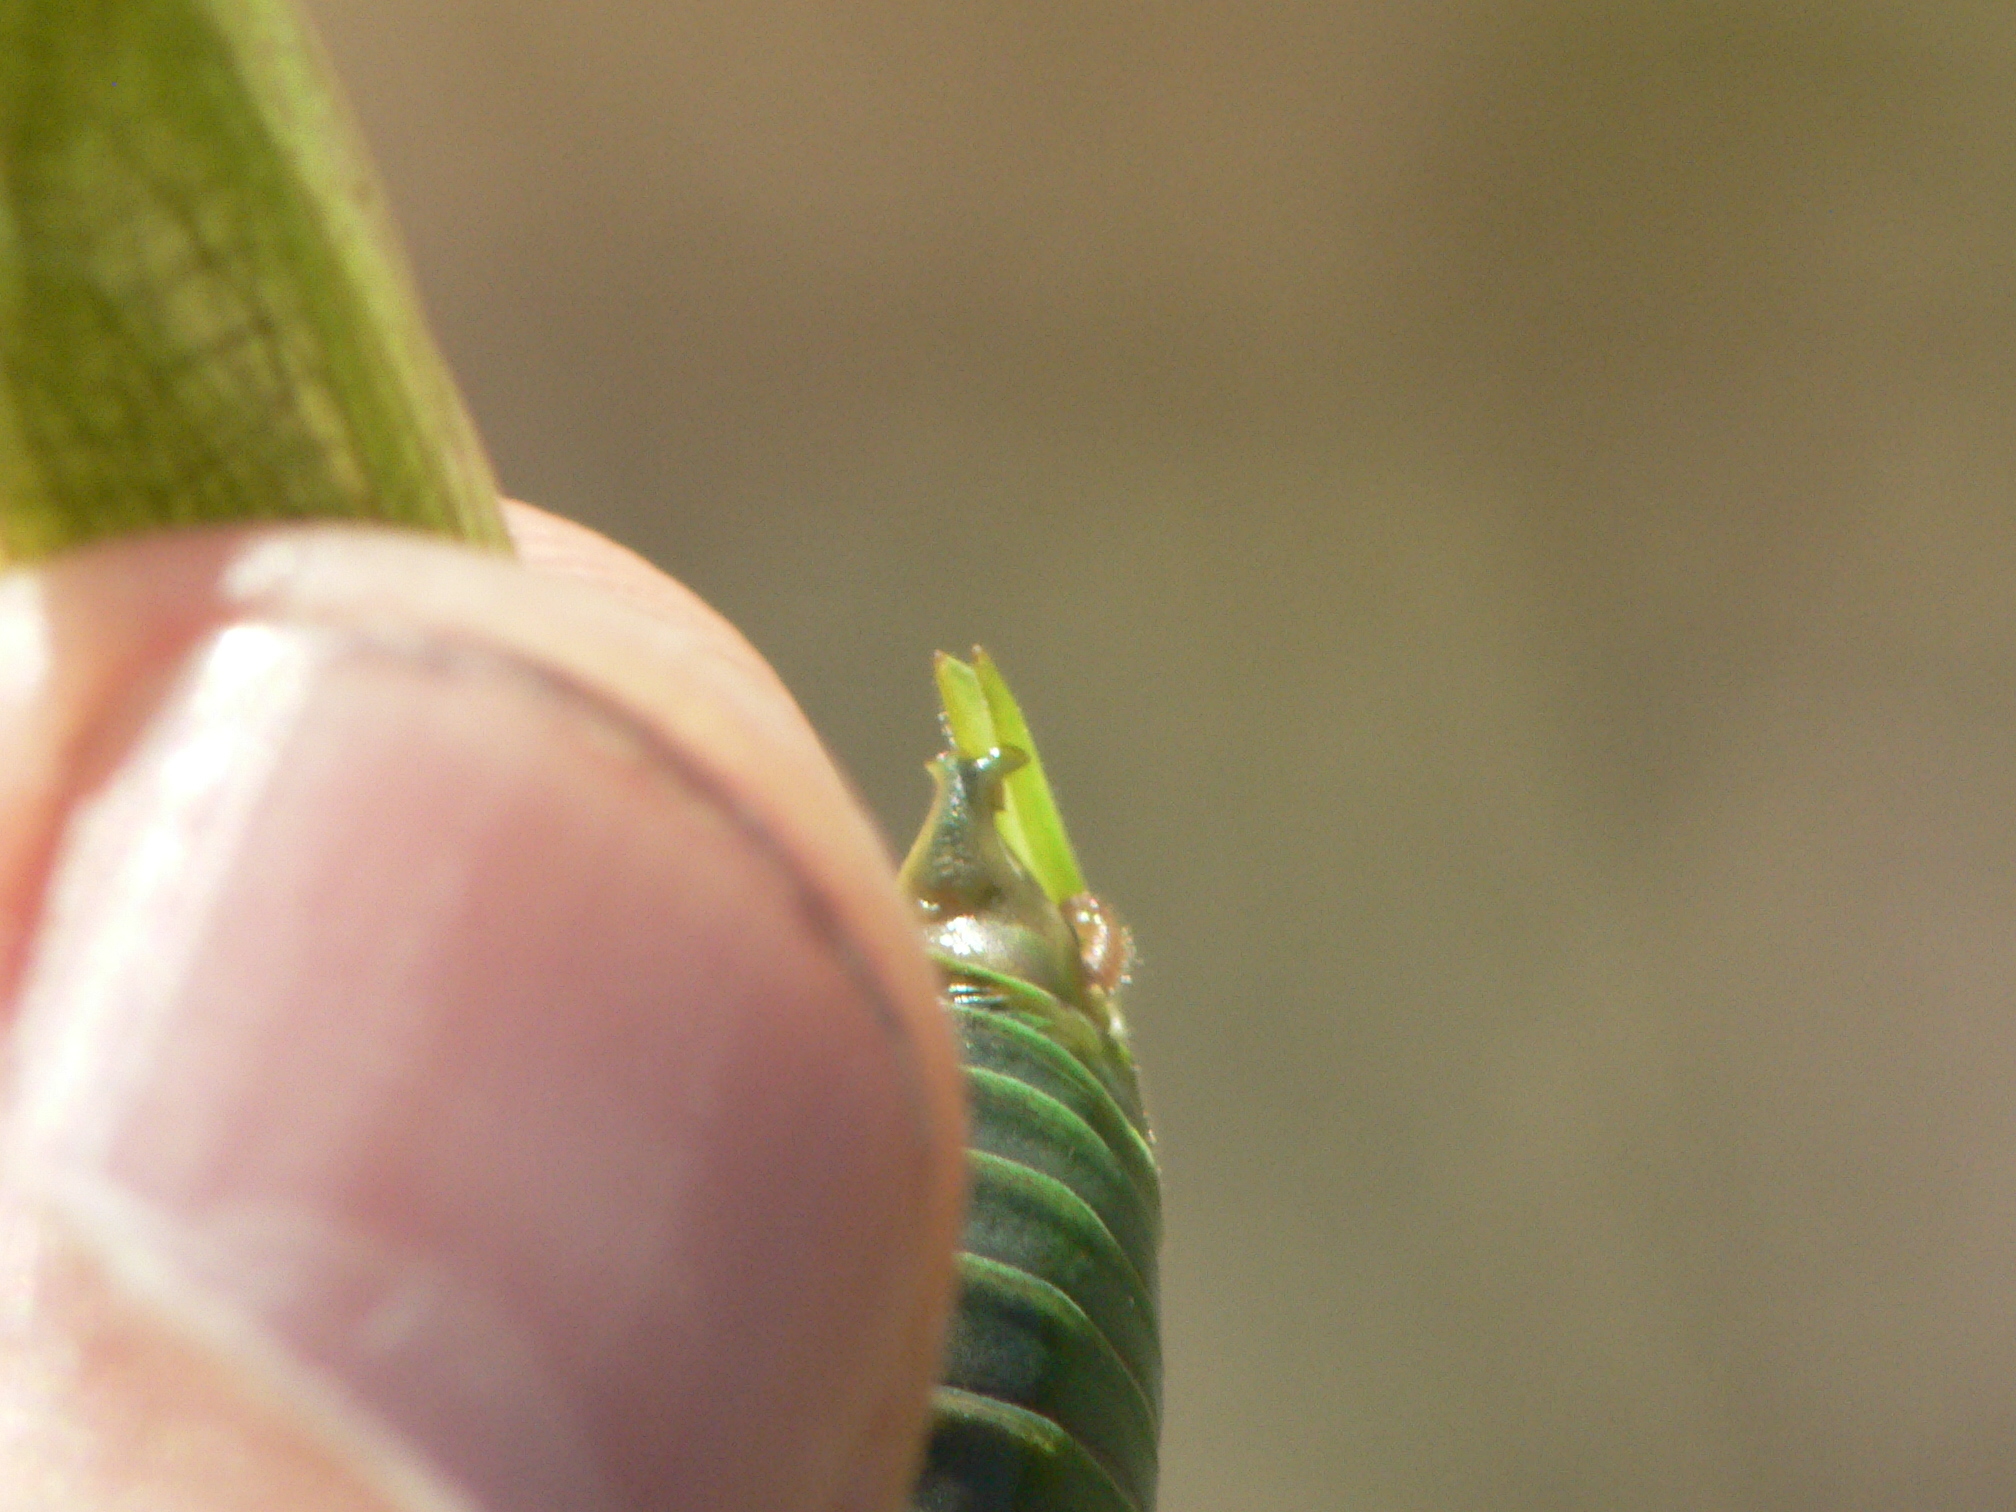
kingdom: Animalia
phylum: Arthropoda
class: Insecta
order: Orthoptera
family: Tettigoniidae
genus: Scudderia
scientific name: Scudderia curvicauda
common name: Curve-tailed bush katydid
